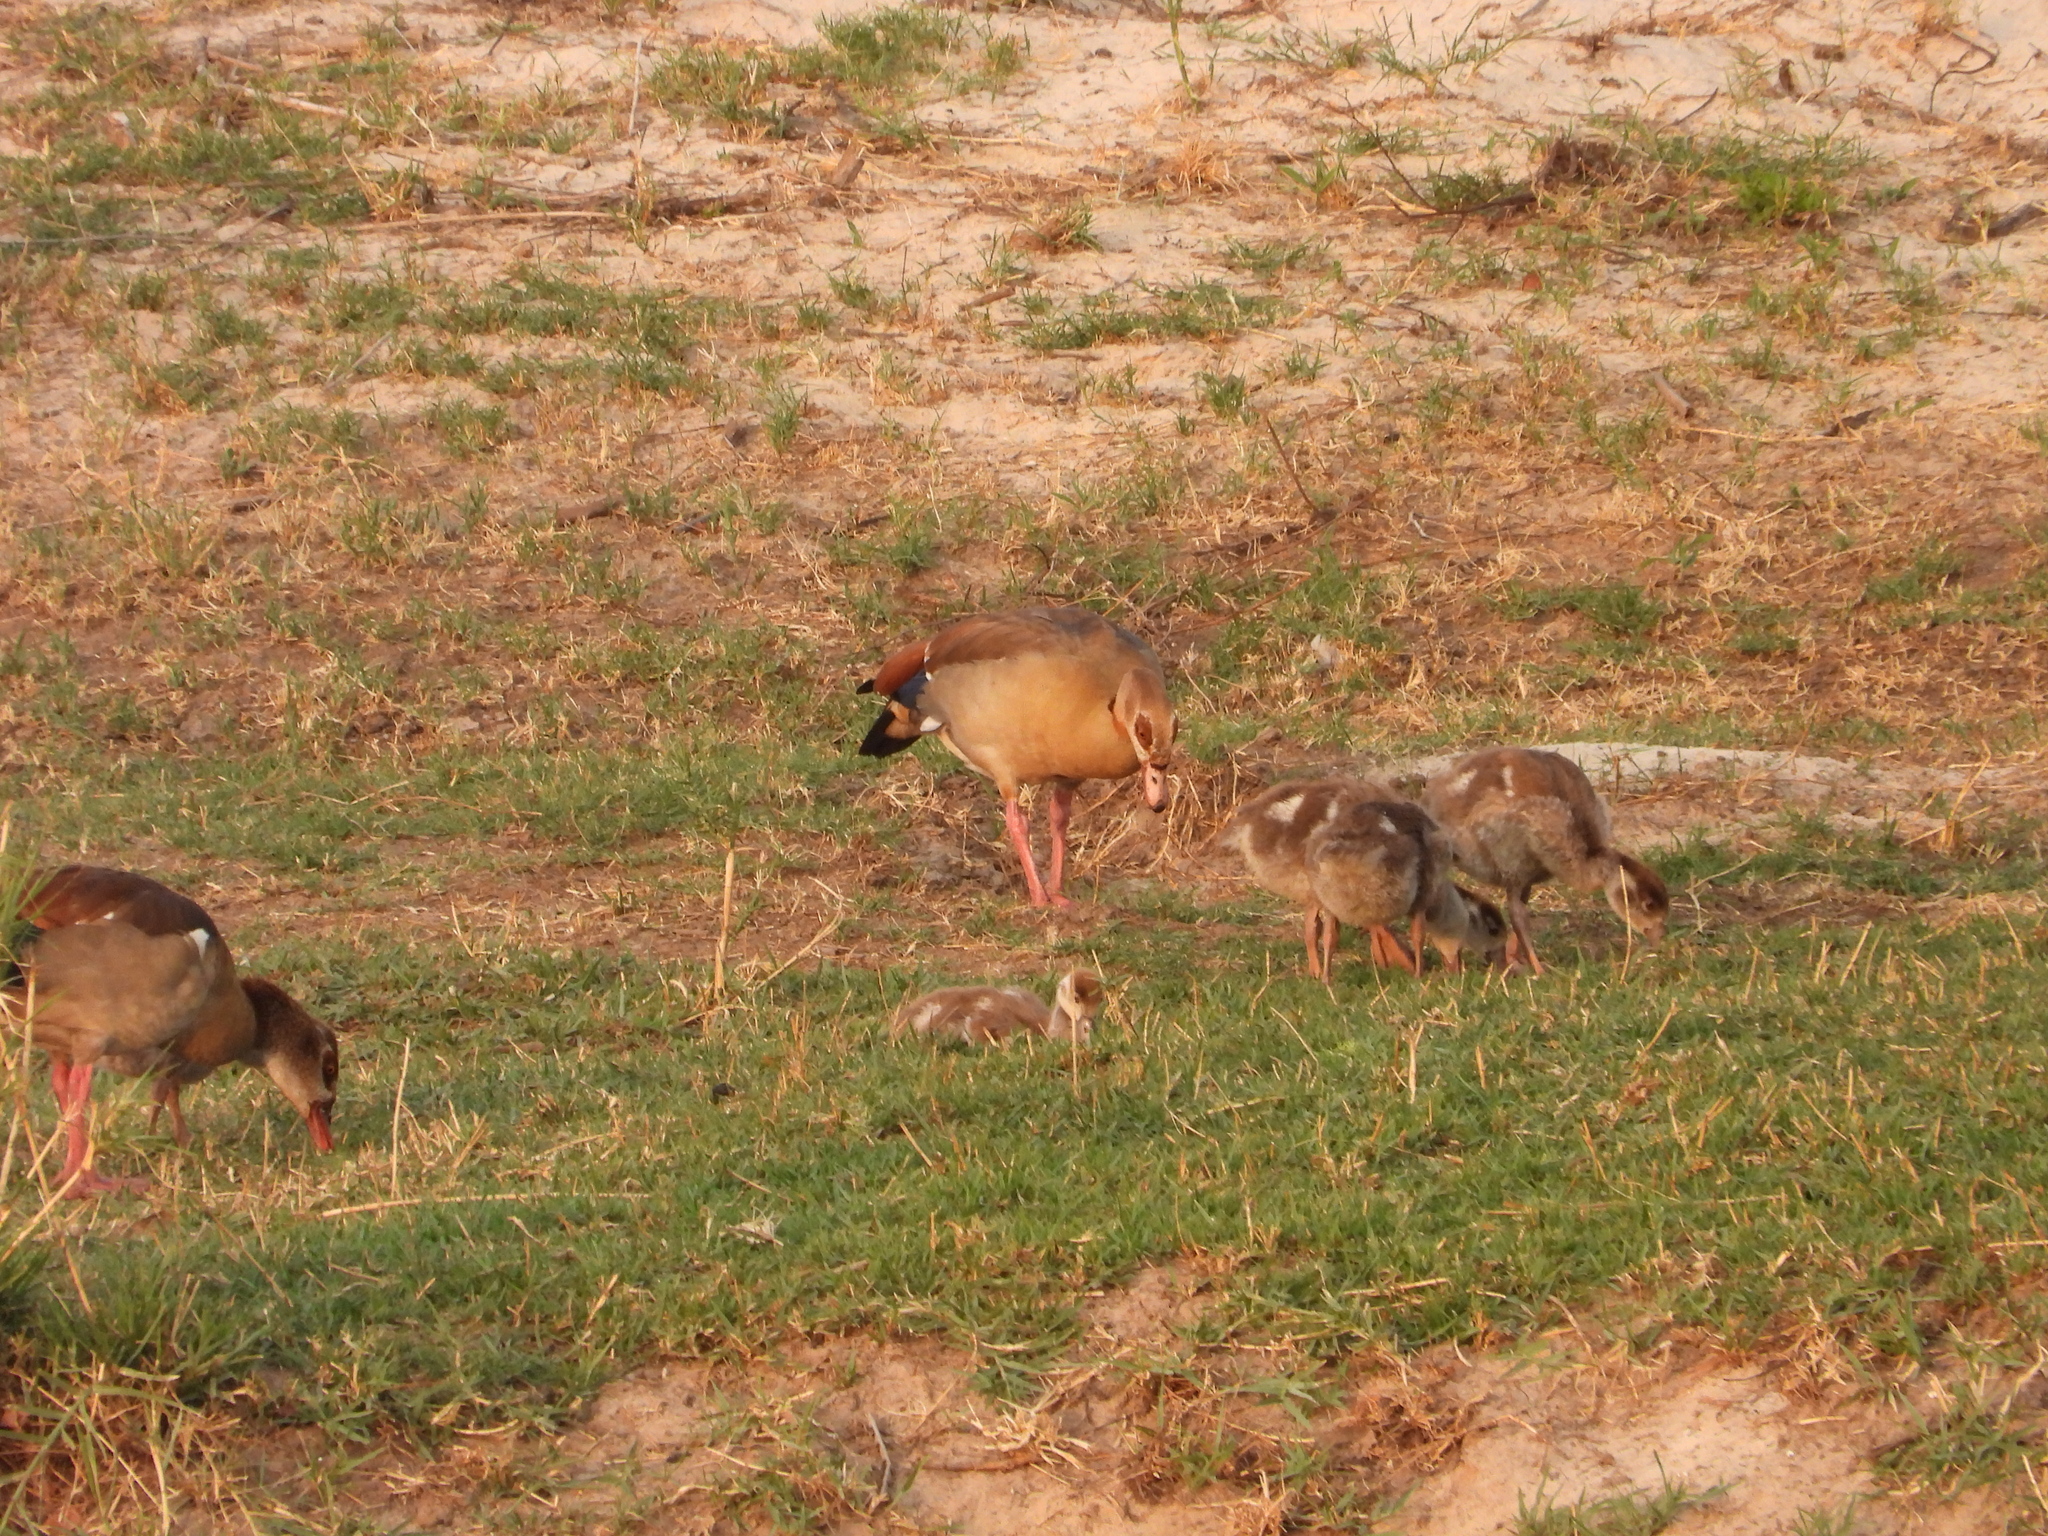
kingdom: Animalia
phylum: Chordata
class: Aves
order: Anseriformes
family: Anatidae
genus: Alopochen
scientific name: Alopochen aegyptiaca
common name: Egyptian goose
